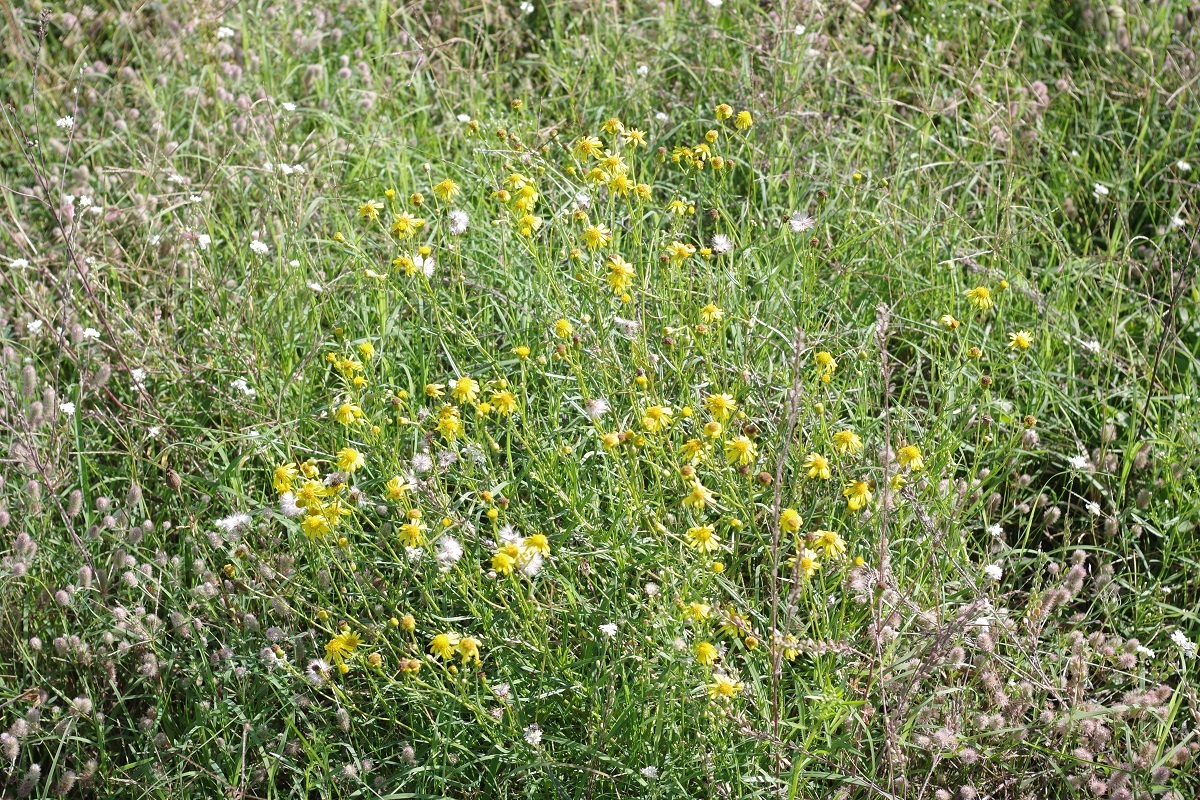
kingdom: Plantae
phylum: Tracheophyta
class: Magnoliopsida
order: Asterales
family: Asteraceae
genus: Senecio
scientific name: Senecio inaequidens
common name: Narrow-leaved ragwort
